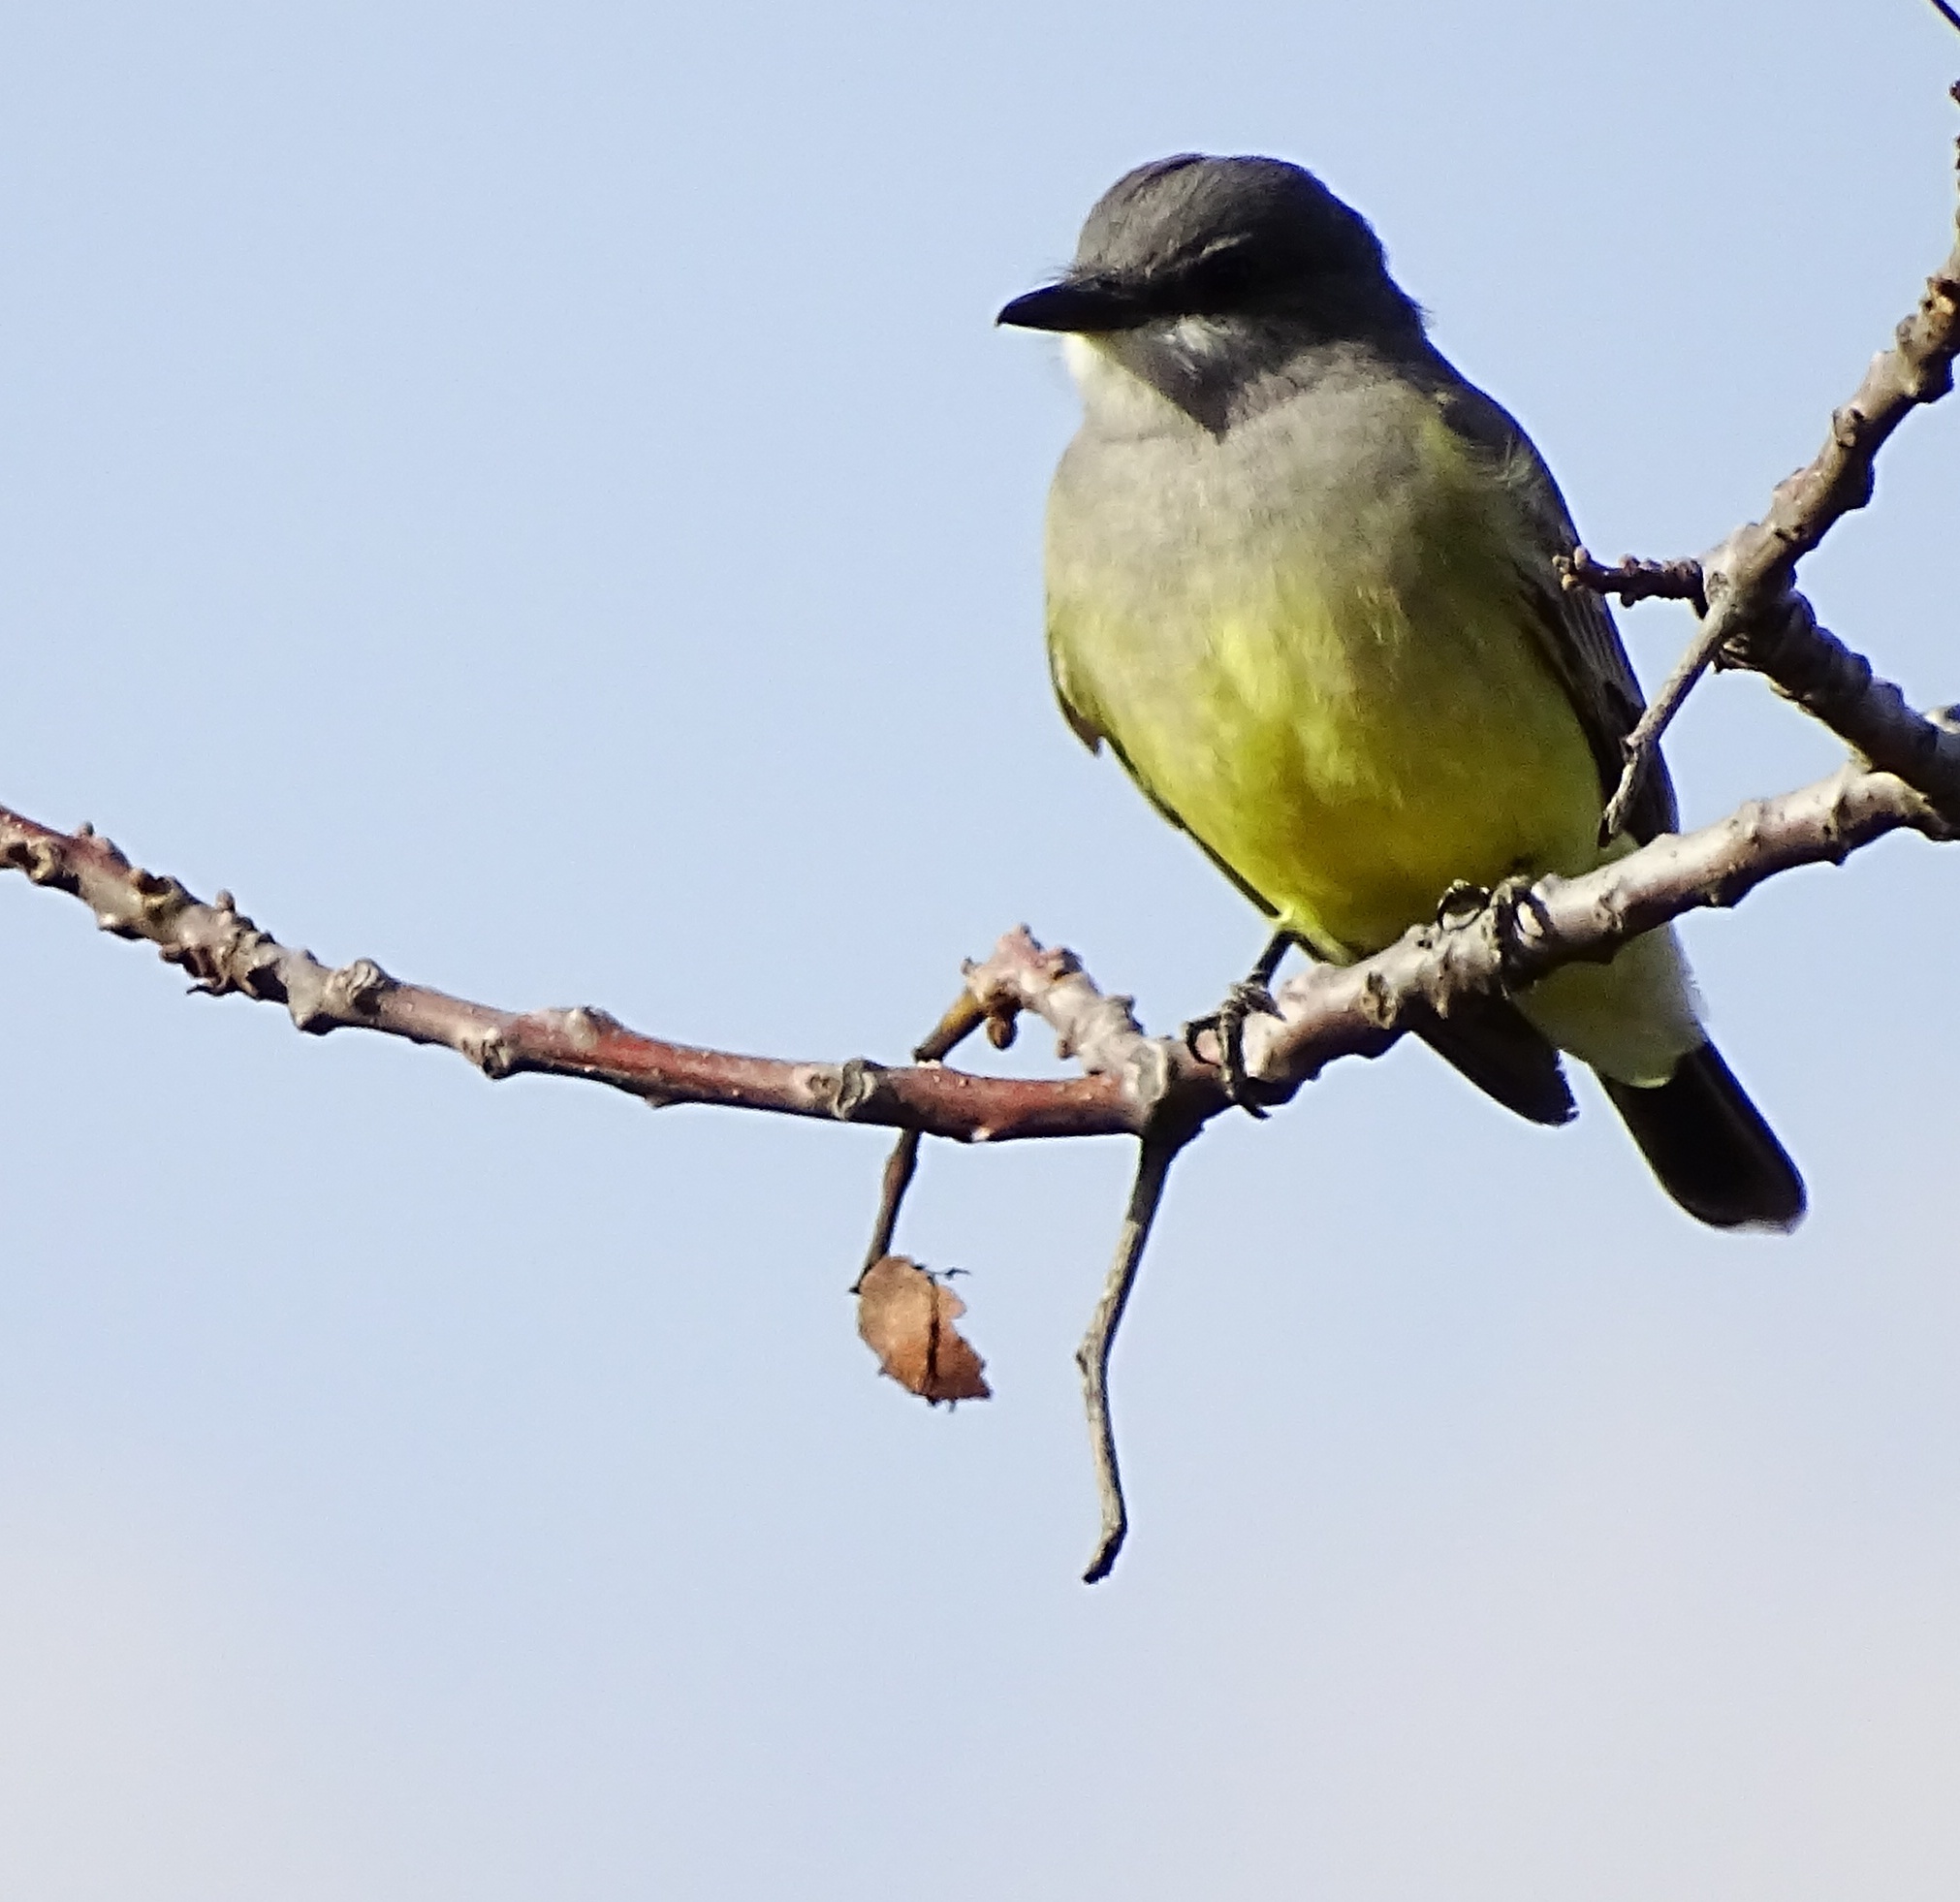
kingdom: Animalia
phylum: Chordata
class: Aves
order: Passeriformes
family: Tyrannidae
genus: Tyrannus
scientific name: Tyrannus vociferans
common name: Cassin's kingbird
